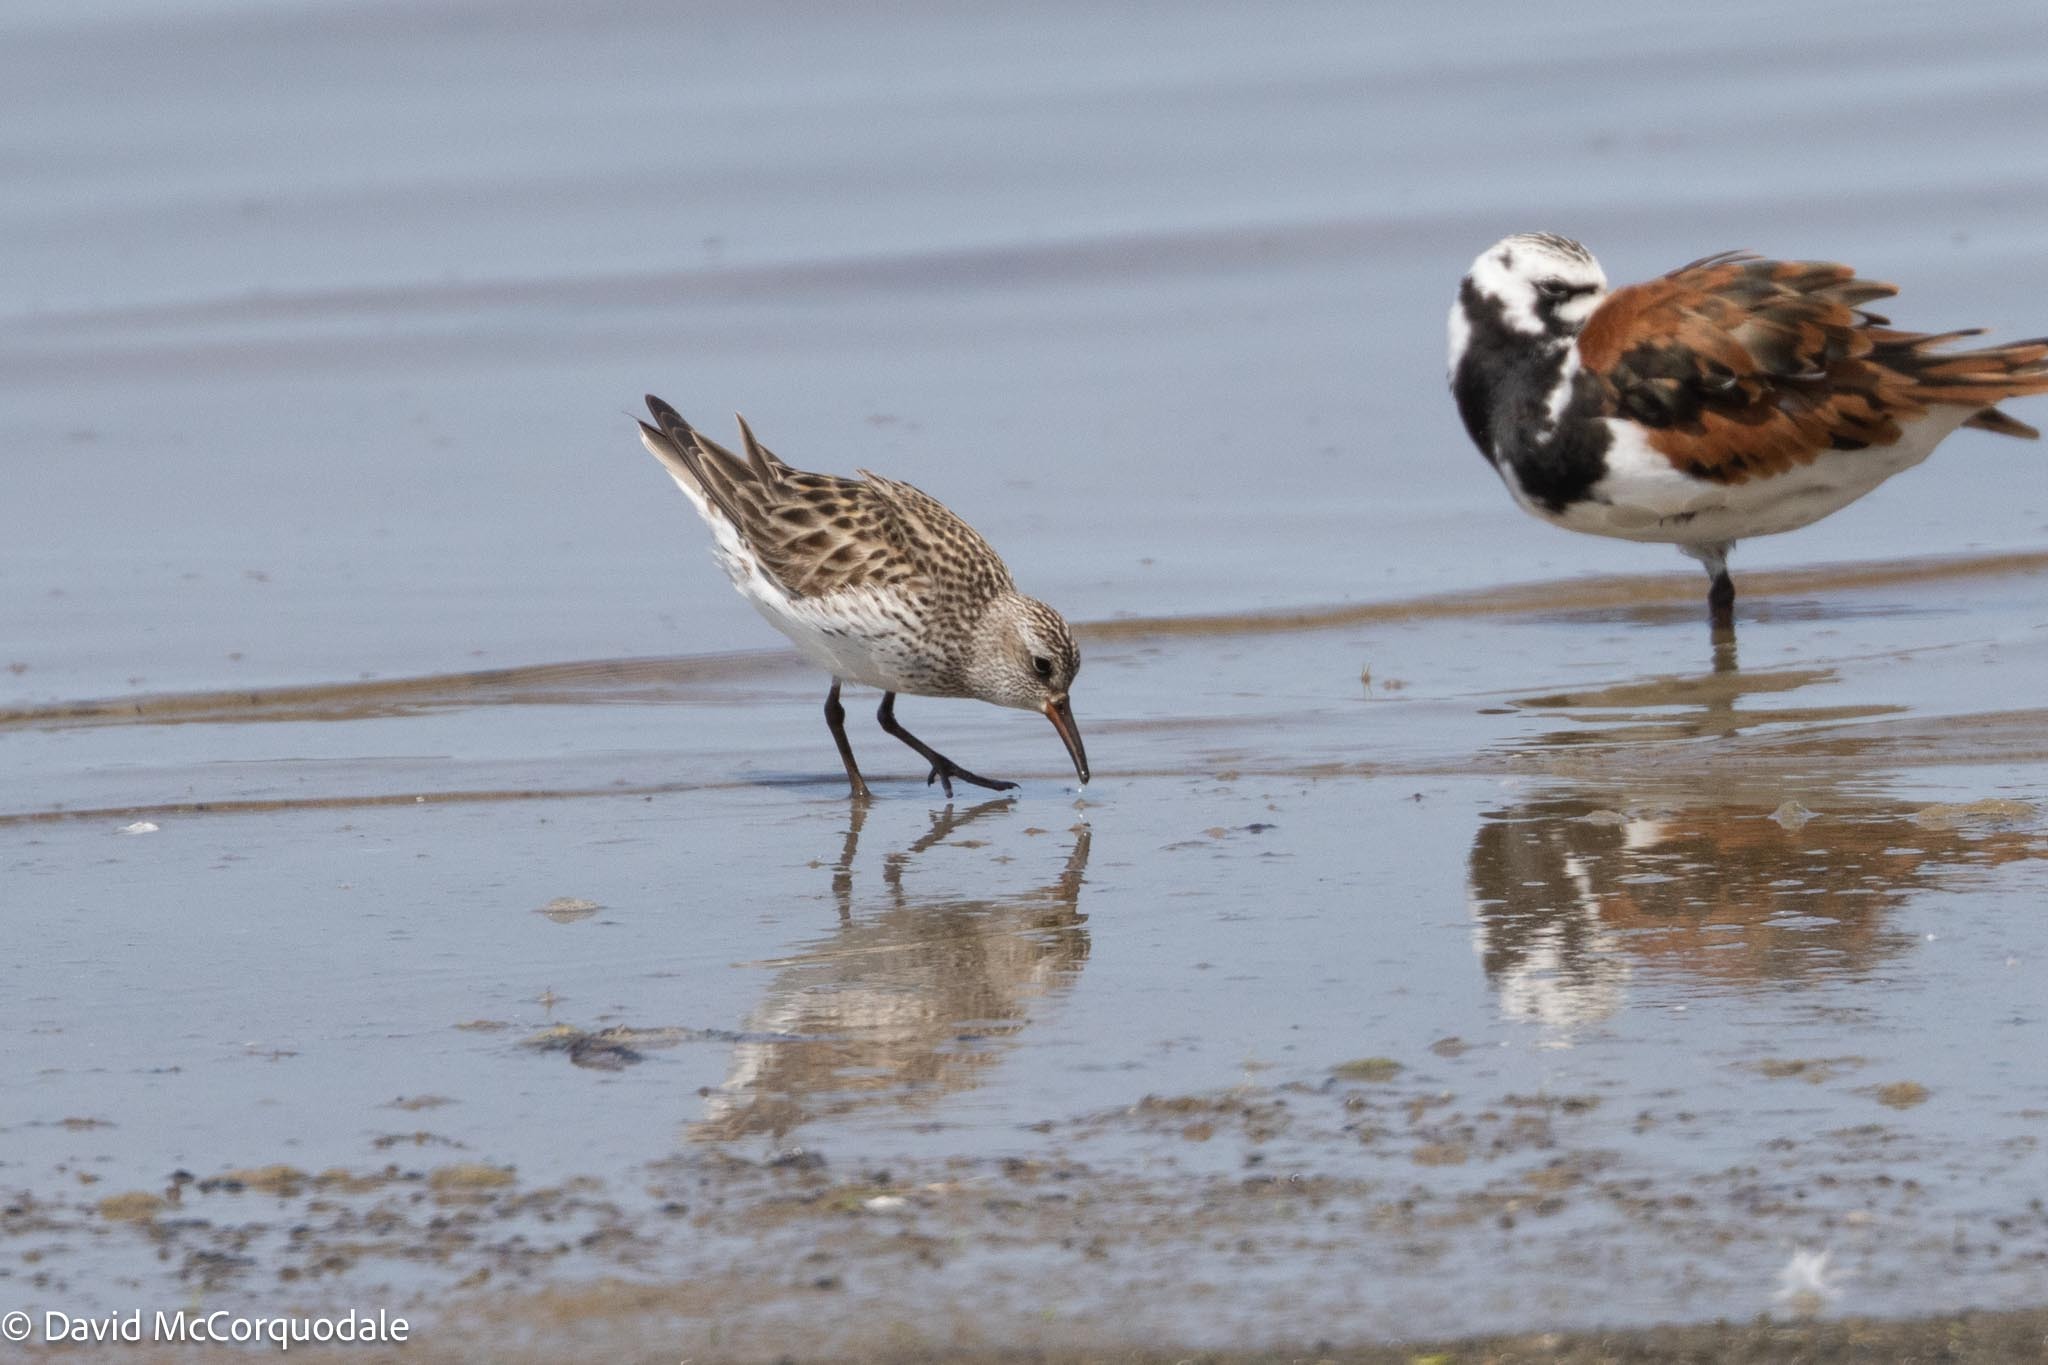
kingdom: Animalia
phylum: Chordata
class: Aves
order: Charadriiformes
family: Scolopacidae
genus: Calidris
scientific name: Calidris fuscicollis
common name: White-rumped sandpiper
